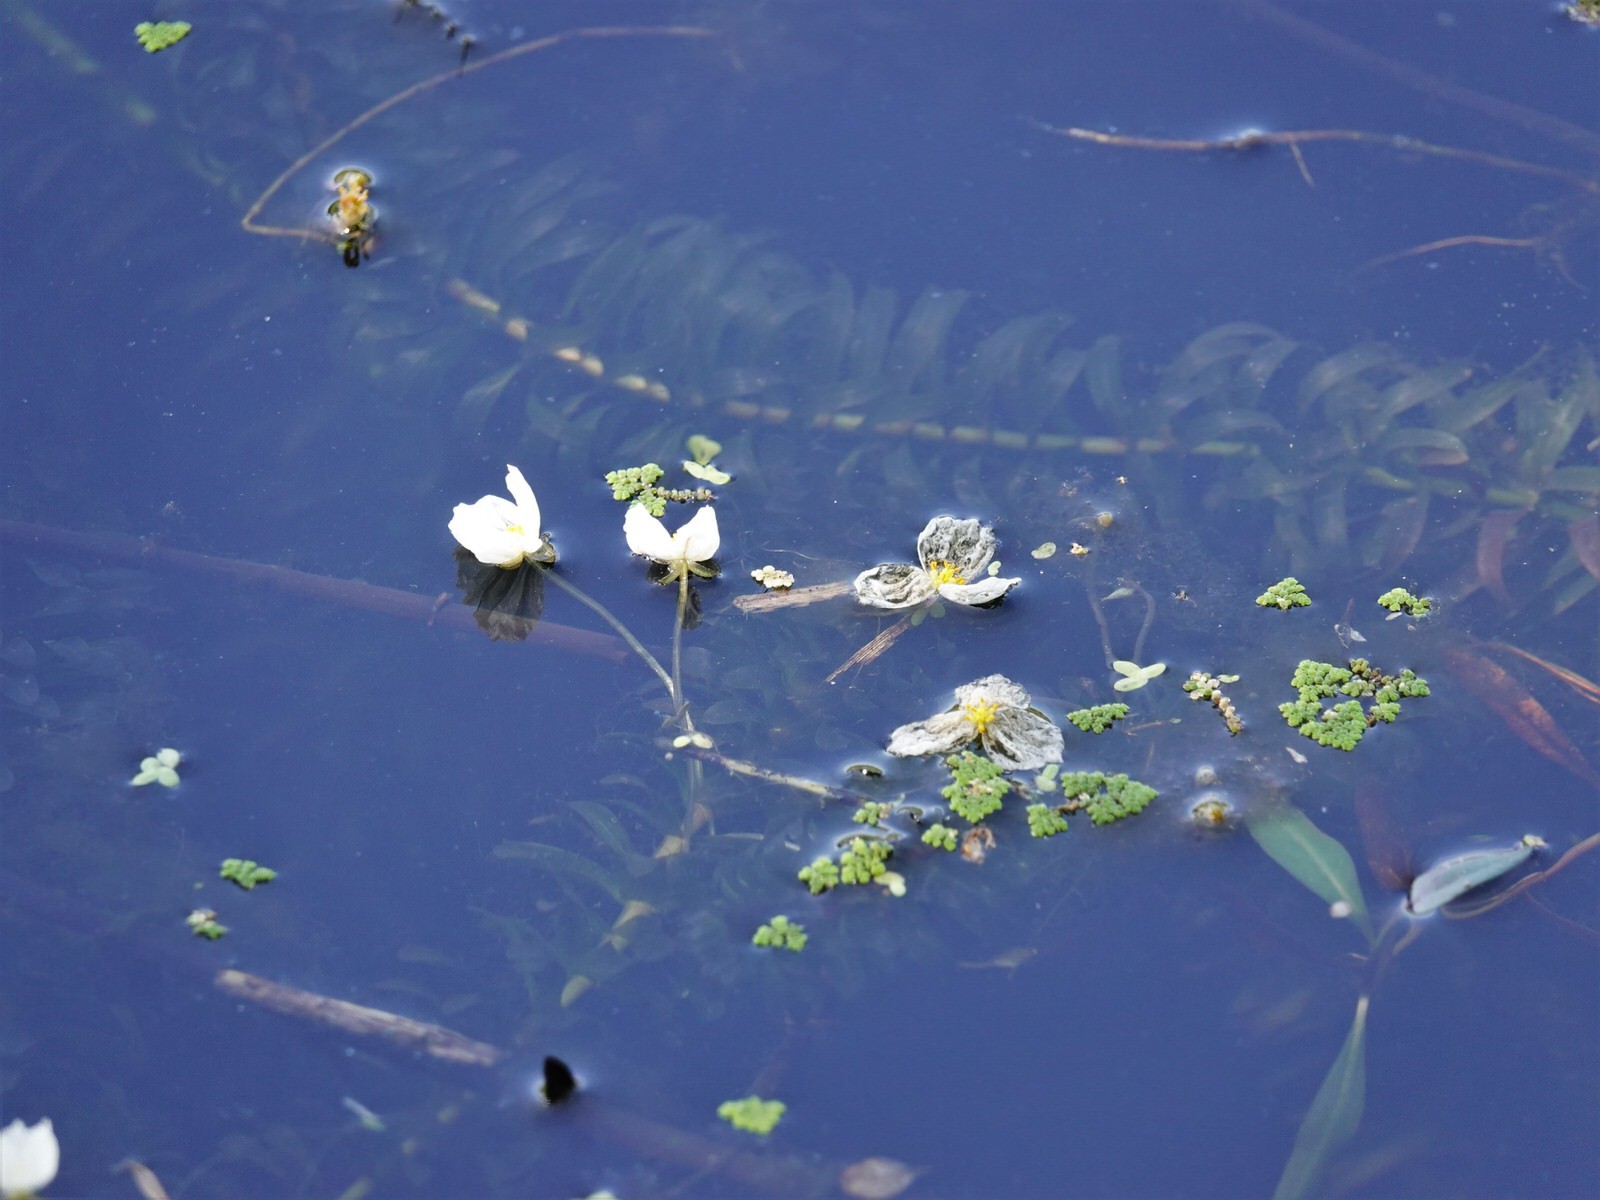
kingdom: Plantae
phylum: Tracheophyta
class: Liliopsida
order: Alismatales
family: Hydrocharitaceae
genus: Elodea
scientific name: Elodea densa
